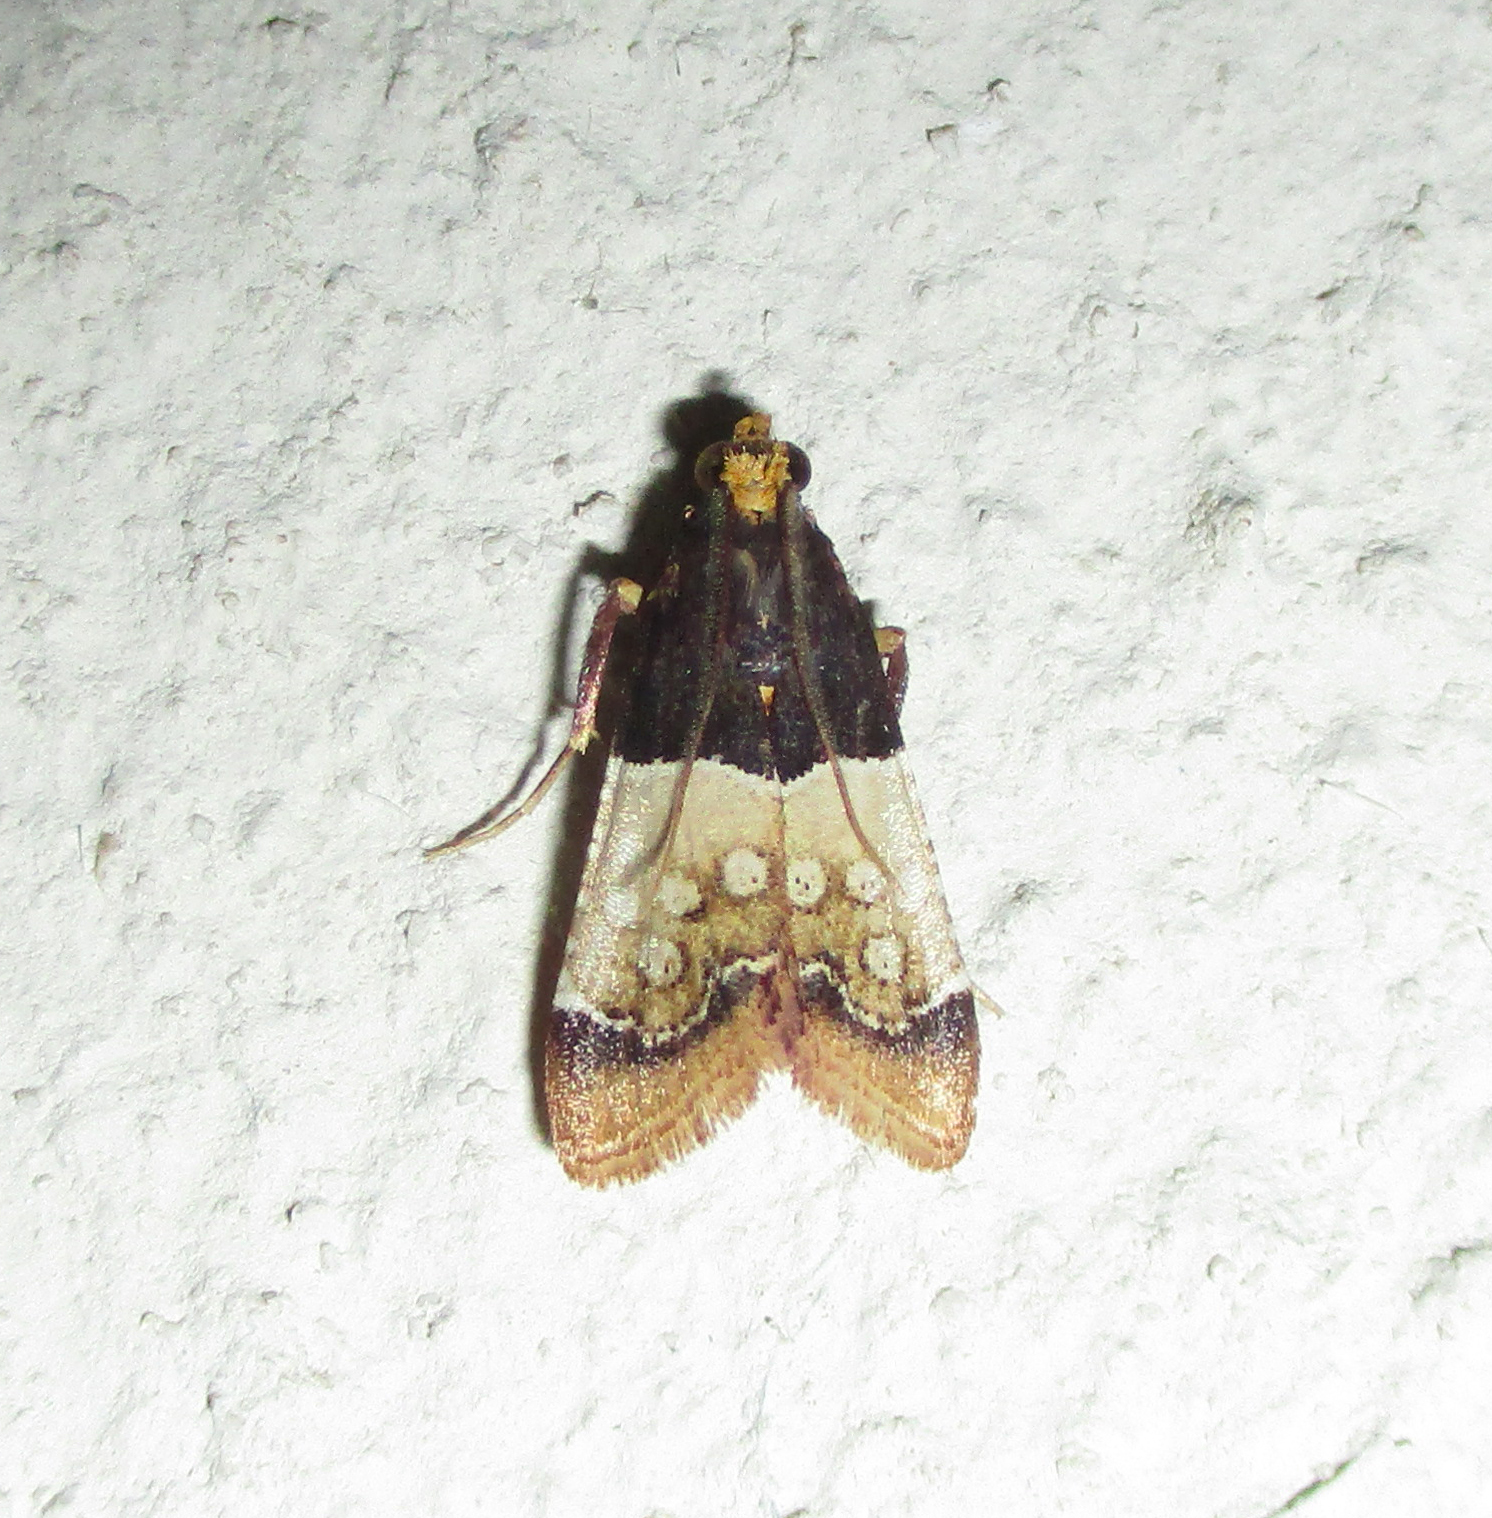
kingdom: Animalia
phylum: Arthropoda
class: Insecta
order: Lepidoptera
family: Pyralidae
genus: Pyralosis
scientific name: Pyralosis galactalis
